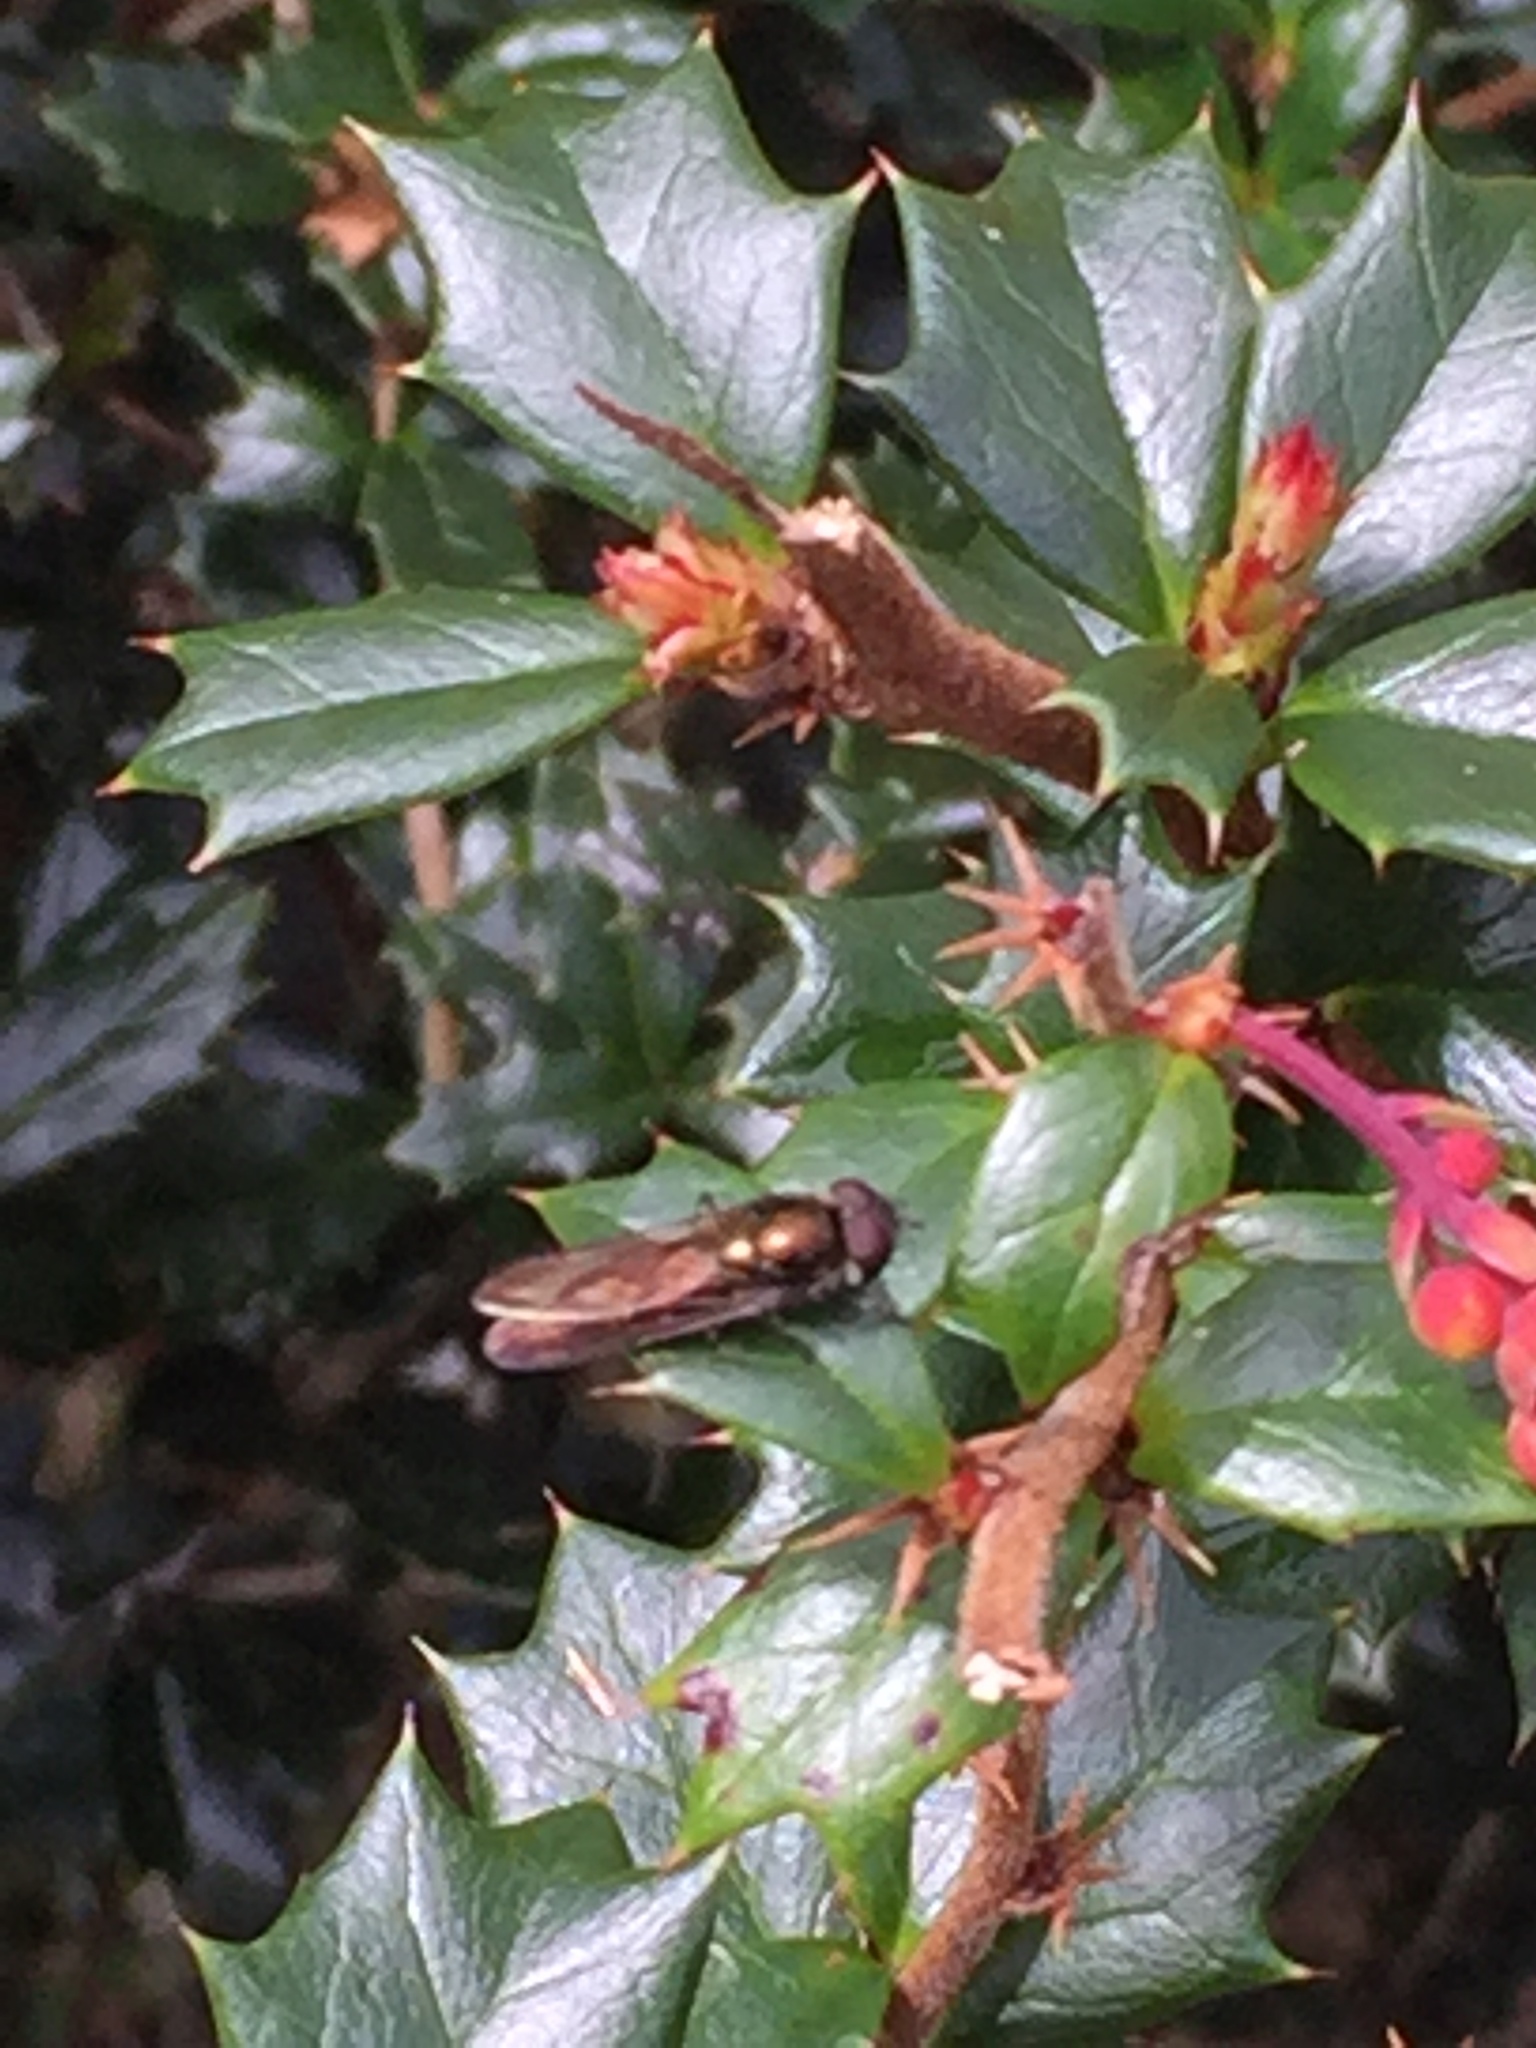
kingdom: Animalia
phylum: Arthropoda
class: Insecta
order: Diptera
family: Syrphidae
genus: Melangyna
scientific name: Melangyna novaezelandiae
